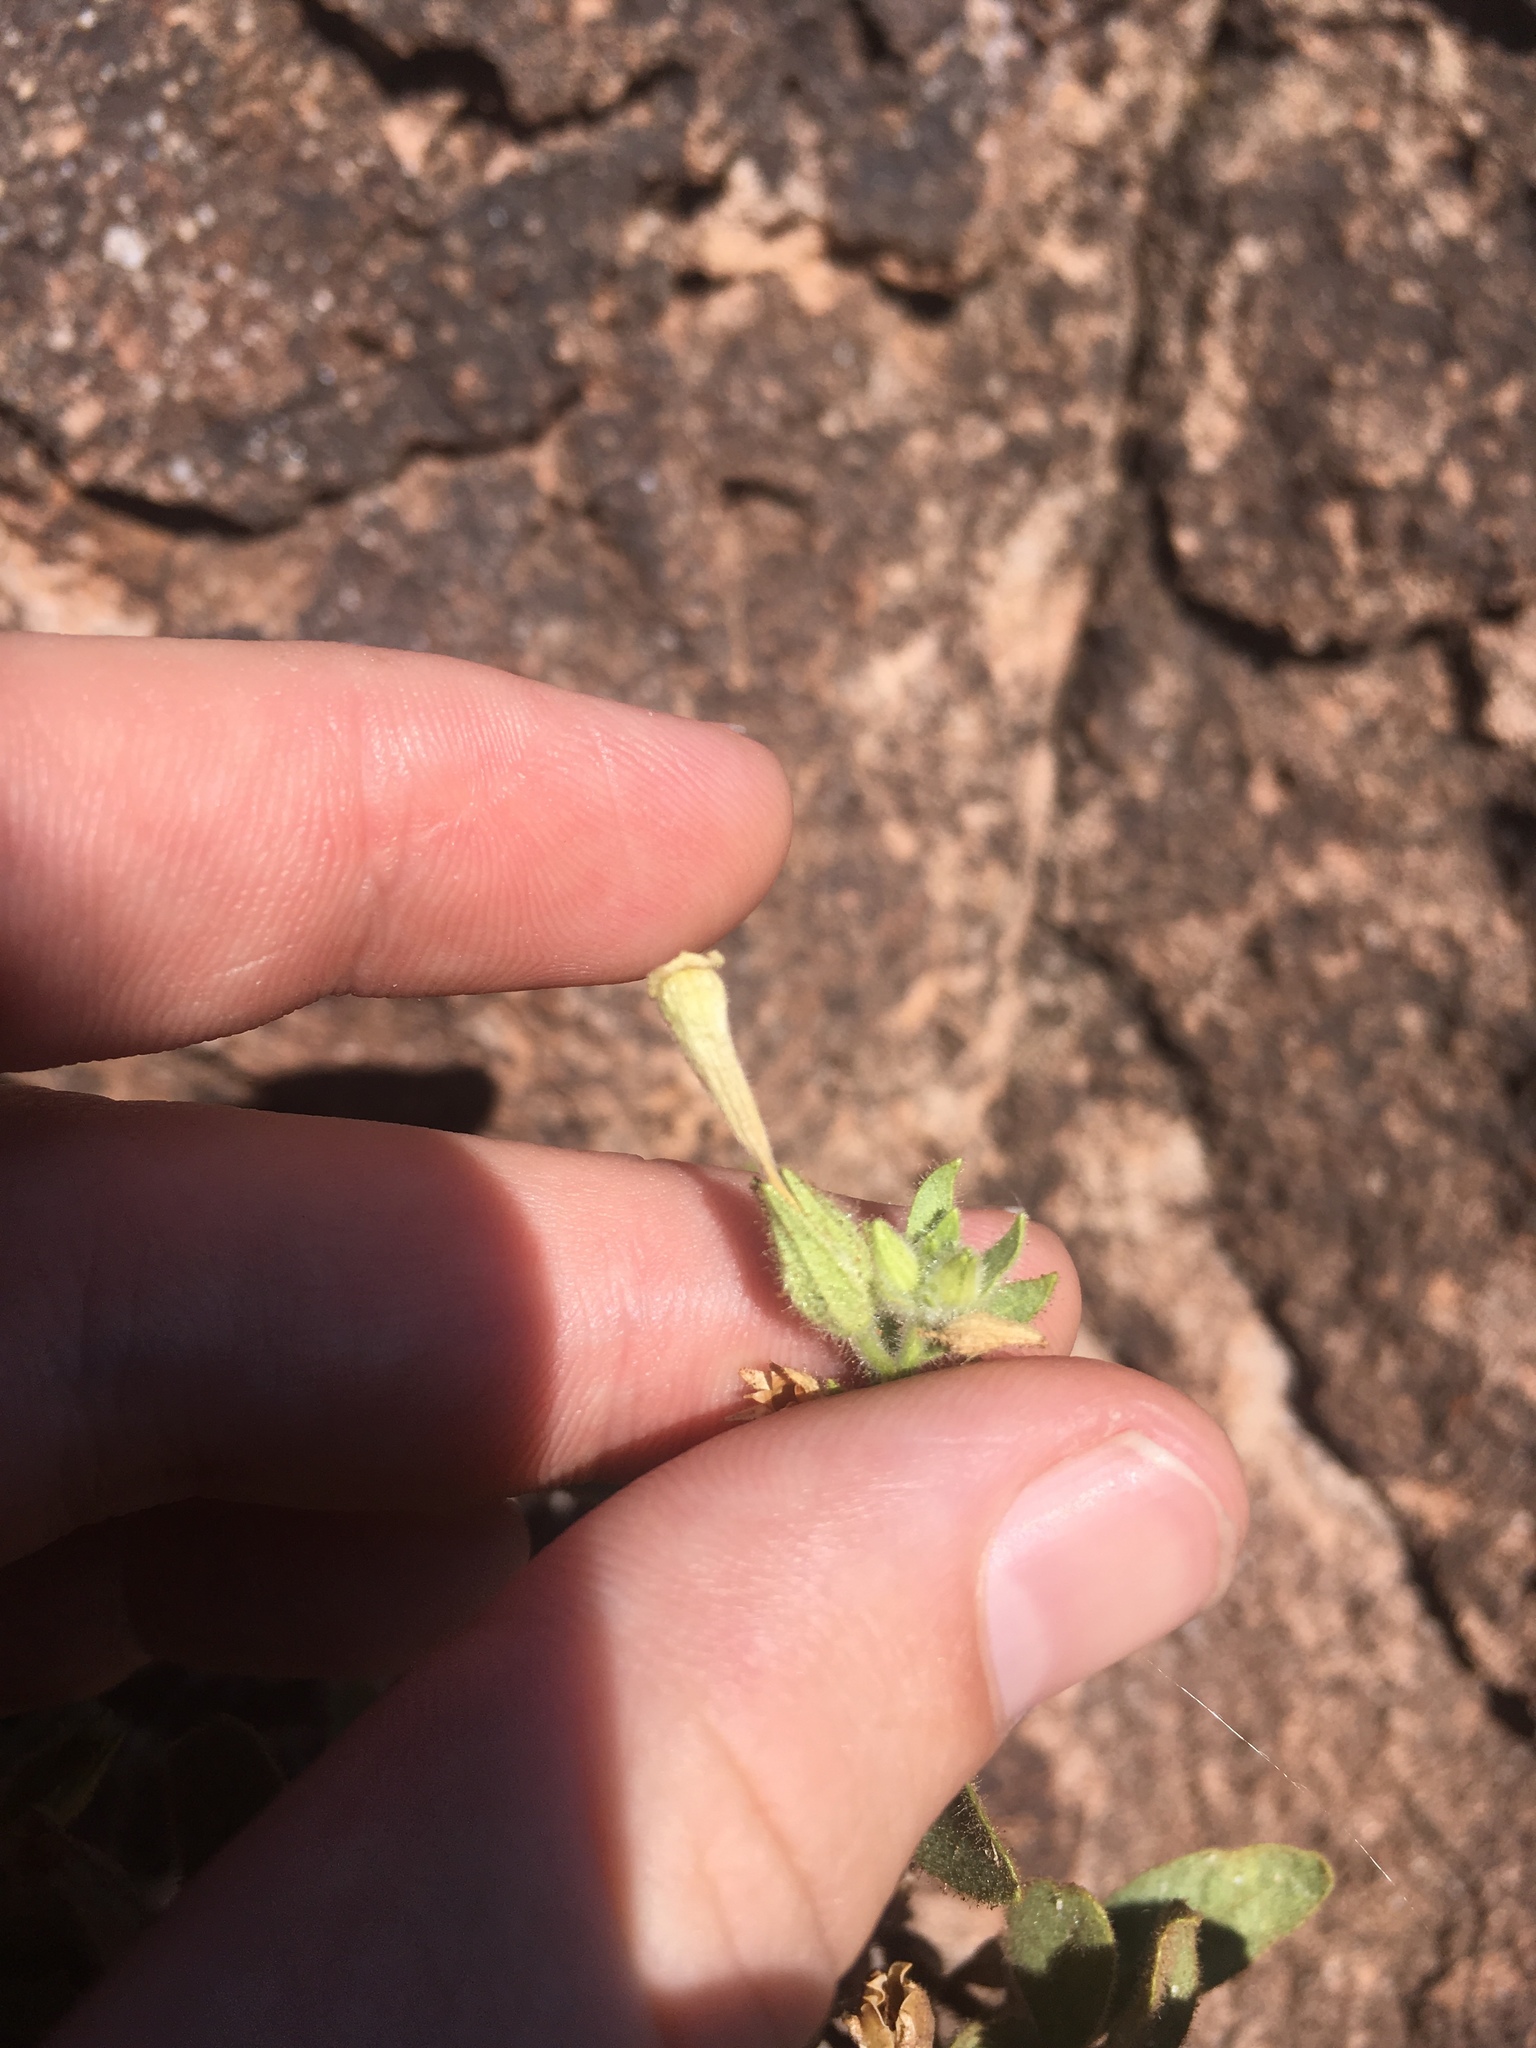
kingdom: Plantae
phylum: Tracheophyta
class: Magnoliopsida
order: Solanales
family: Solanaceae
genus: Nicotiana
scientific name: Nicotiana obtusifolia
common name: Desert tobacco
